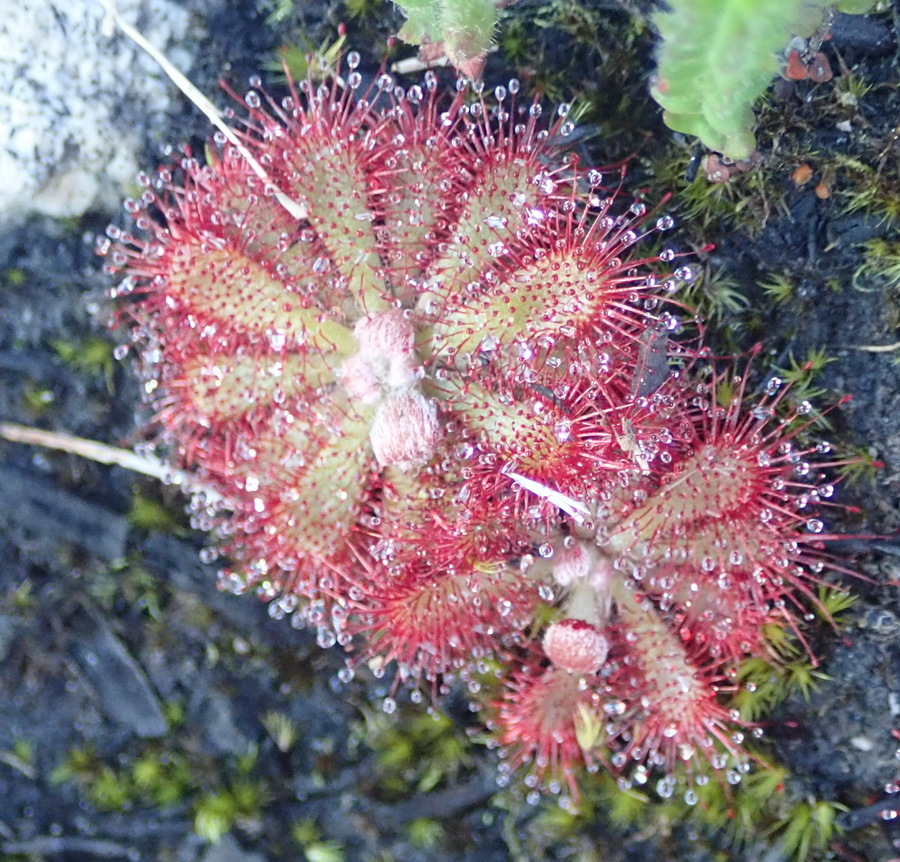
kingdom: Plantae
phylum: Tracheophyta
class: Magnoliopsida
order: Caryophyllales
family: Droseraceae
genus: Drosera
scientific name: Drosera aliciae
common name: Alice sundew
